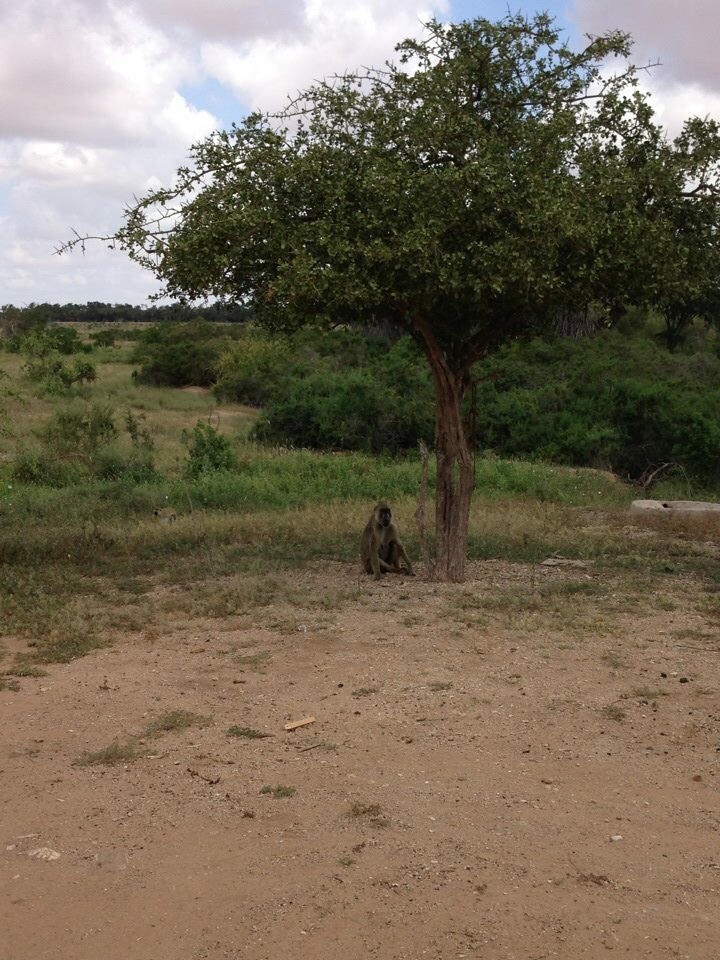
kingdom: Animalia
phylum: Chordata
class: Mammalia
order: Primates
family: Cercopithecidae
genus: Papio
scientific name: Papio cynocephalus
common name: Yellow baboon
